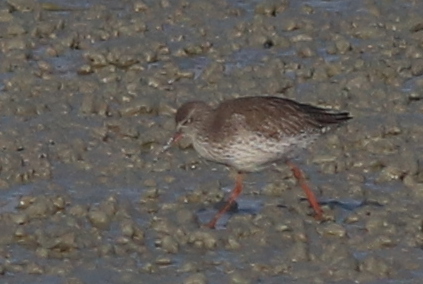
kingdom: Animalia
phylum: Chordata
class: Aves
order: Charadriiformes
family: Scolopacidae
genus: Tringa
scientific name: Tringa totanus
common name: Common redshank
